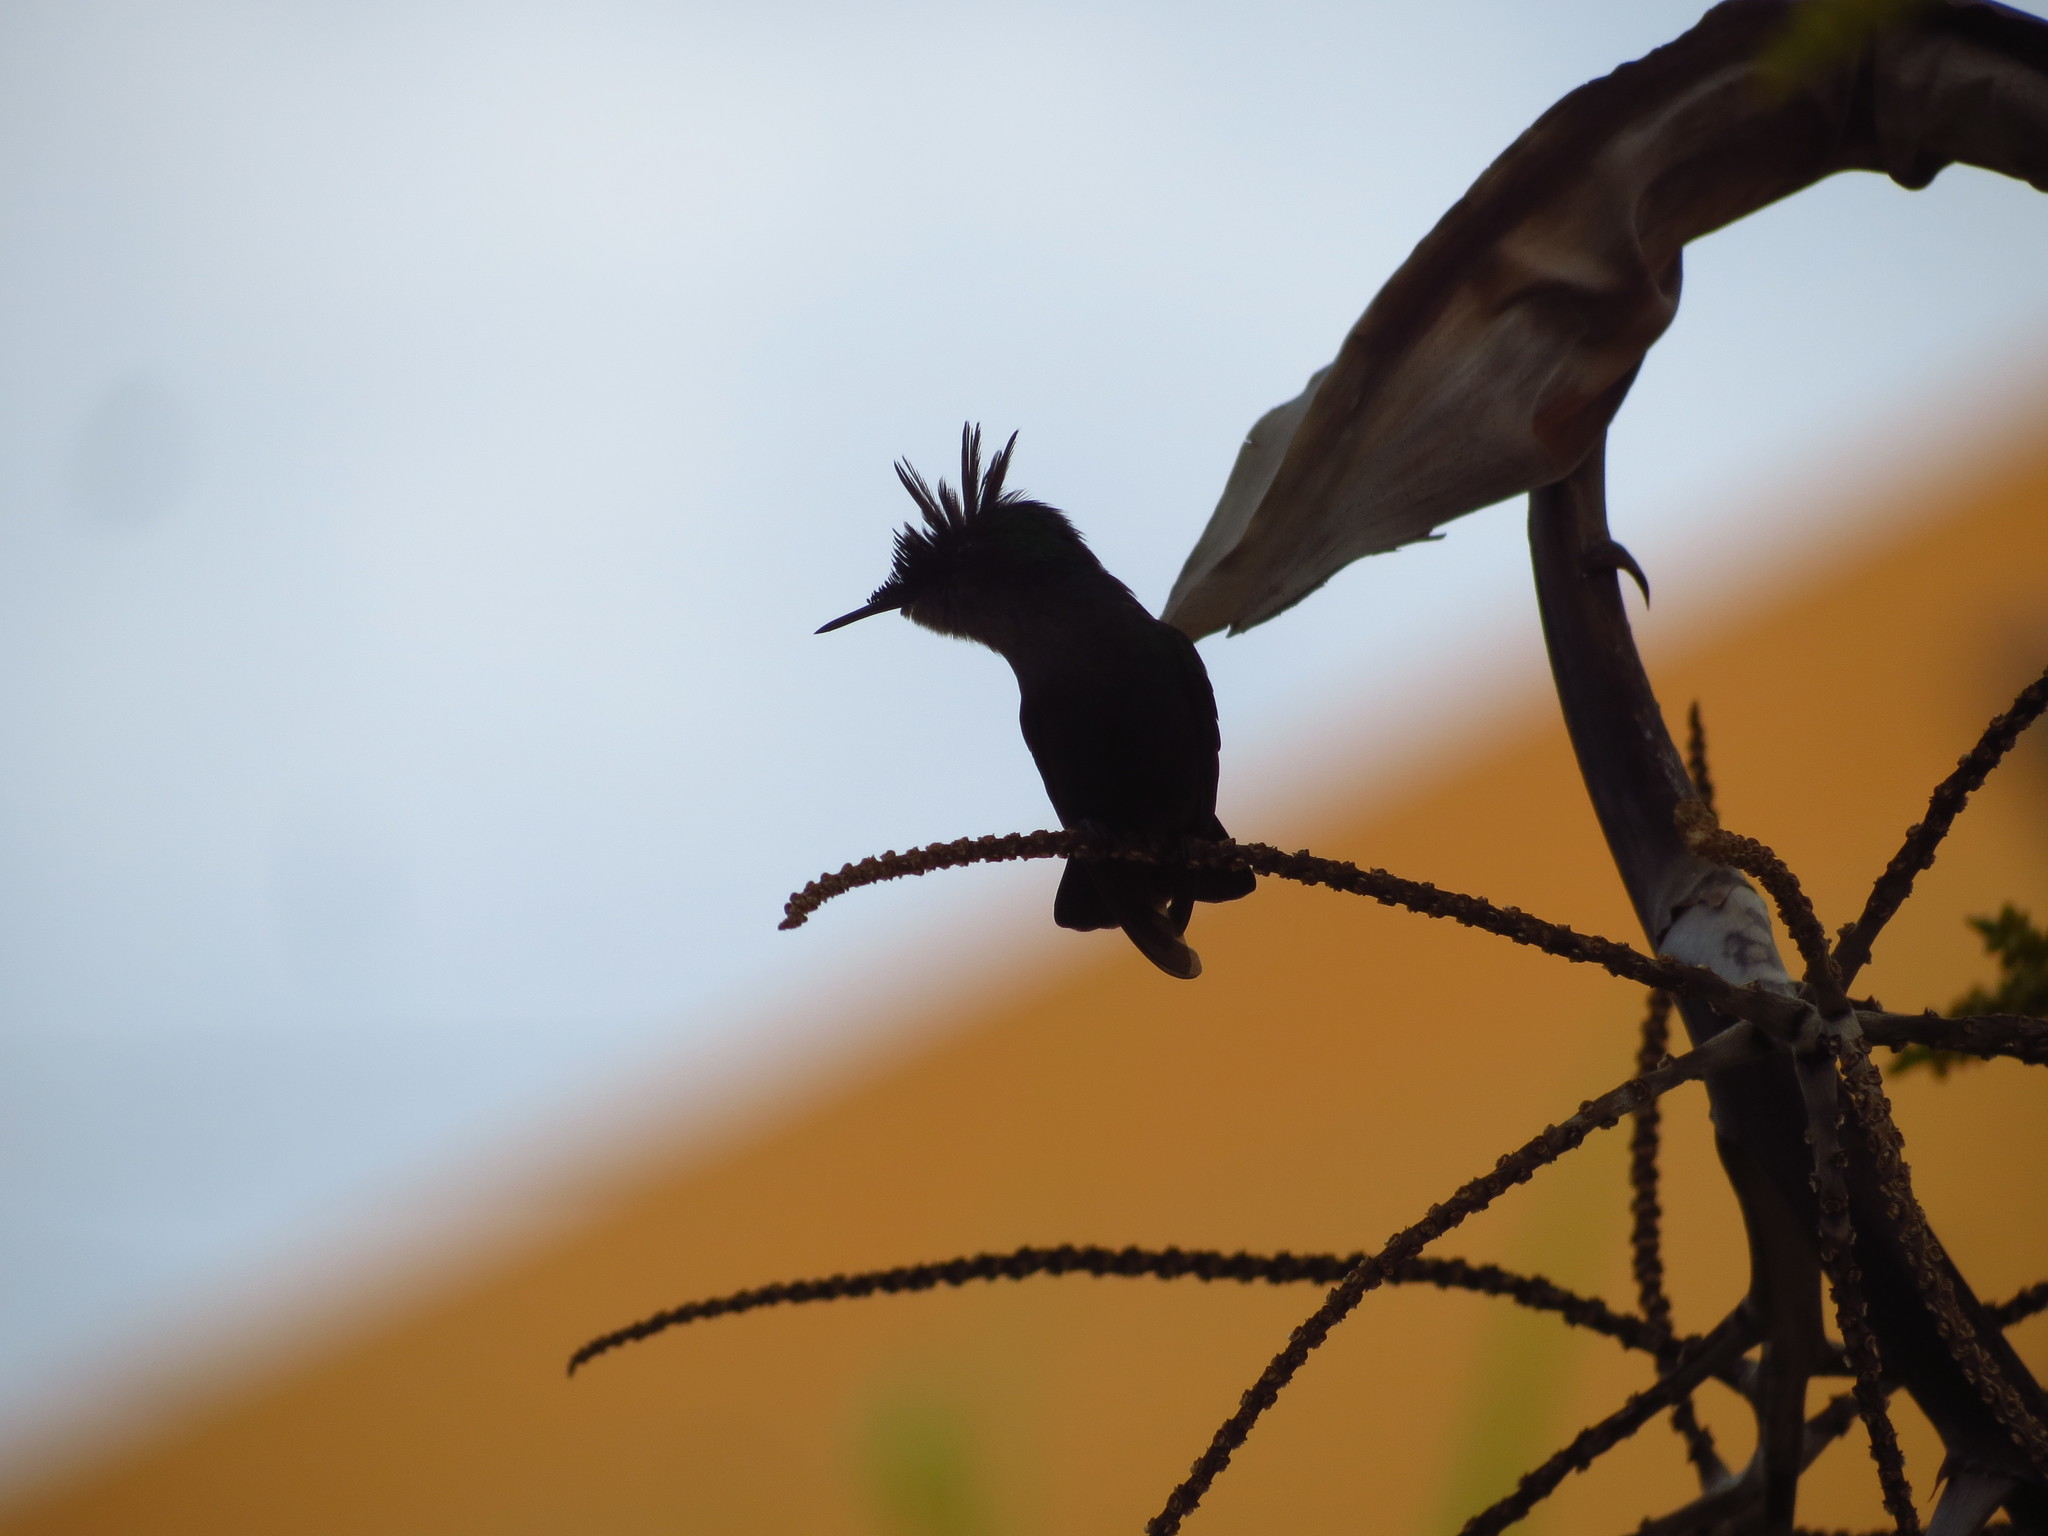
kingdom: Animalia
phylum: Chordata
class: Aves
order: Apodiformes
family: Trochilidae
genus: Orthorhyncus
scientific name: Orthorhyncus cristatus
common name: Antillean crested hummingbird
